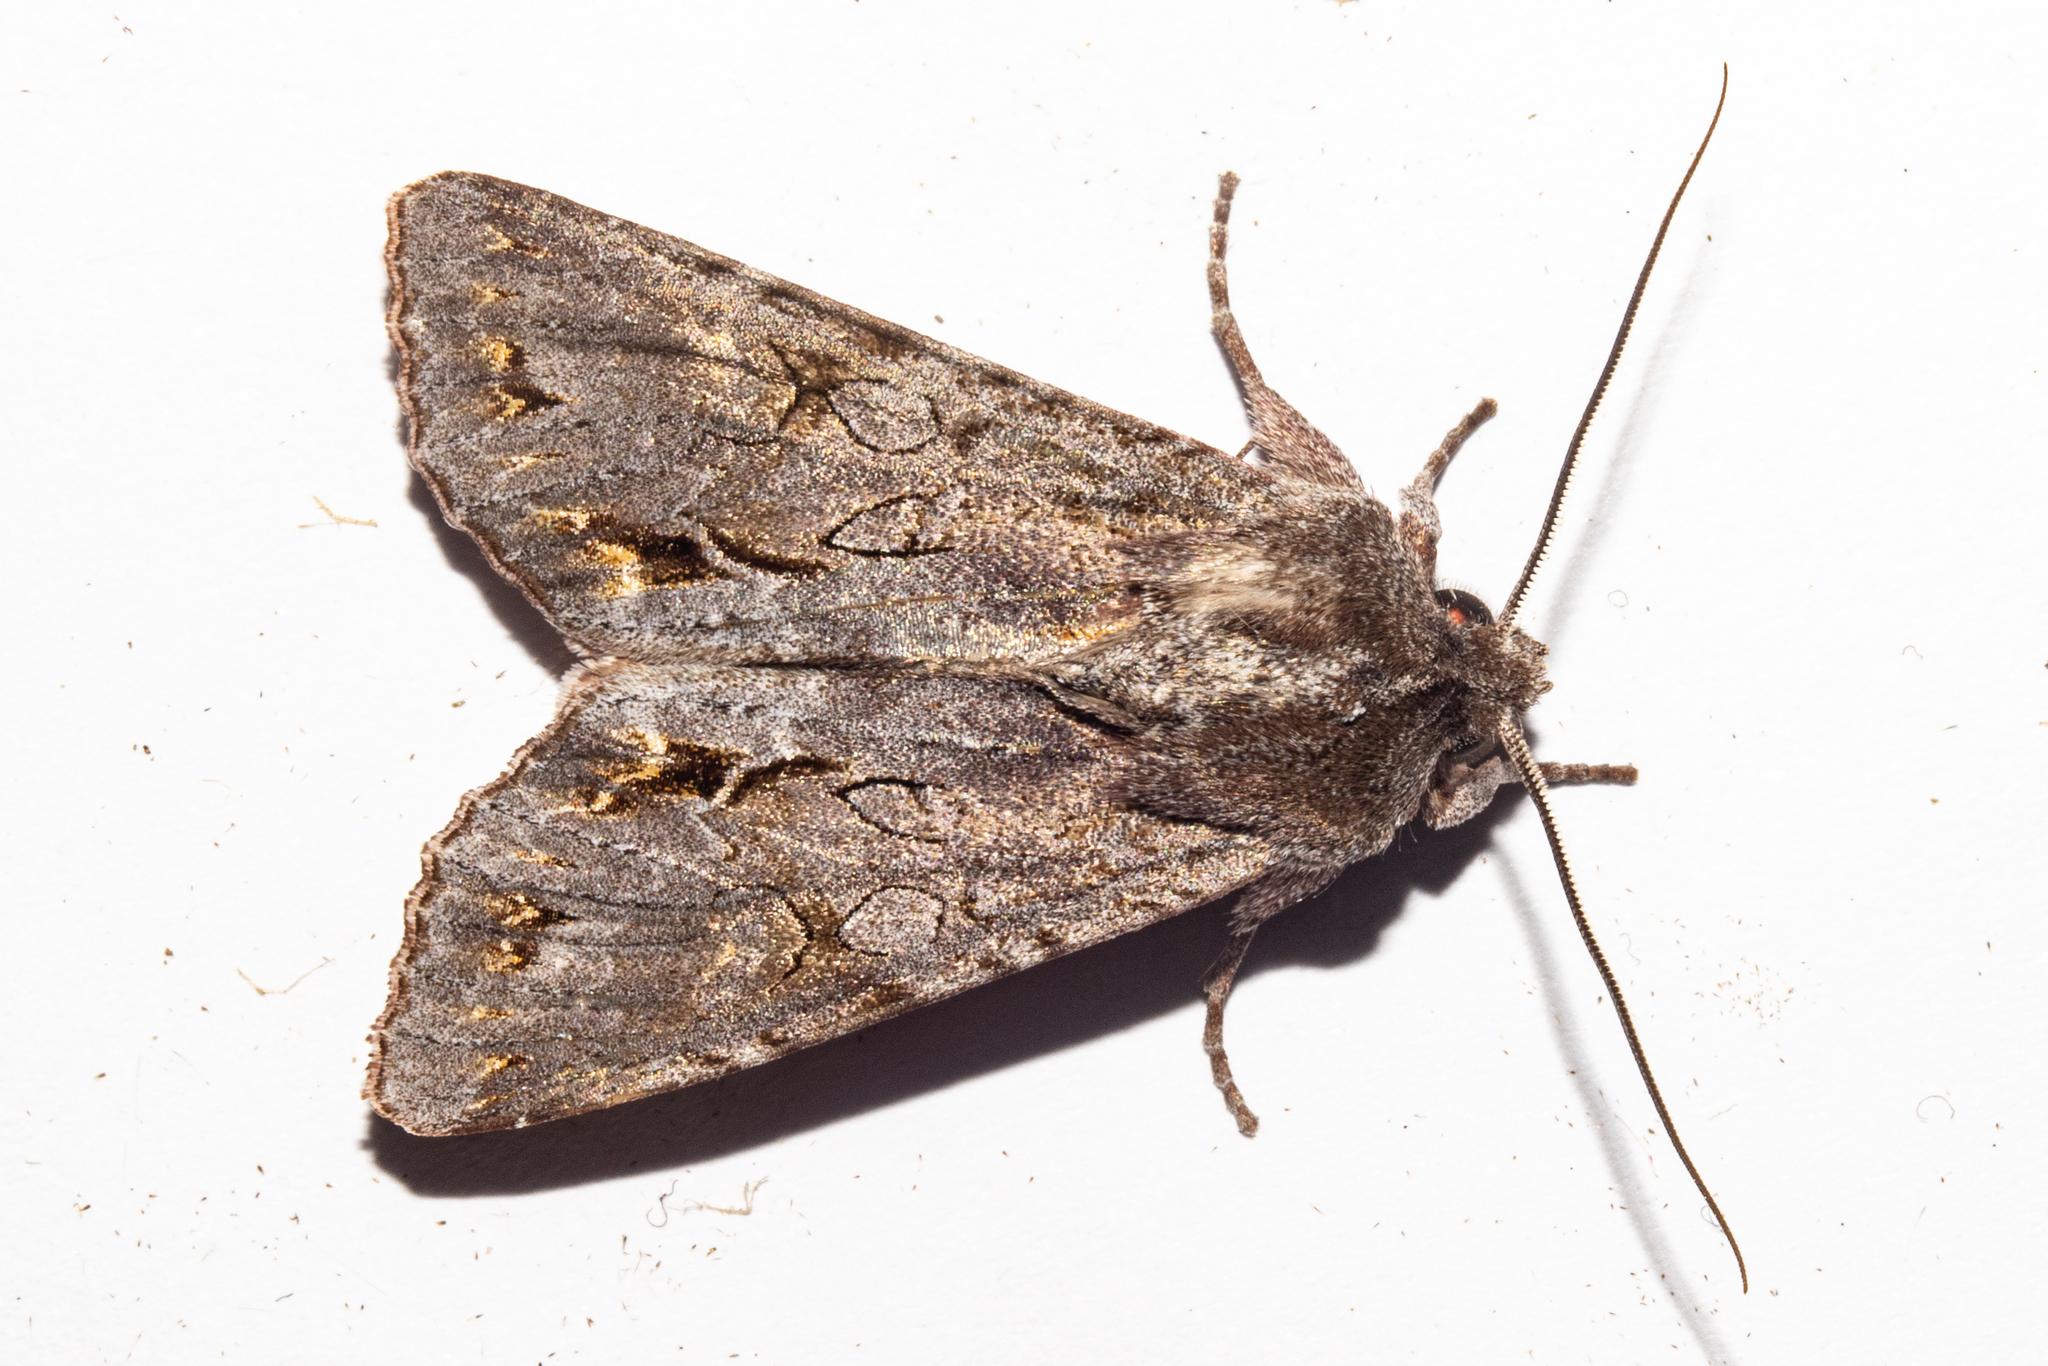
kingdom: Animalia
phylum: Arthropoda
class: Insecta
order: Lepidoptera
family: Noctuidae
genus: Ichneutica
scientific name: Ichneutica
